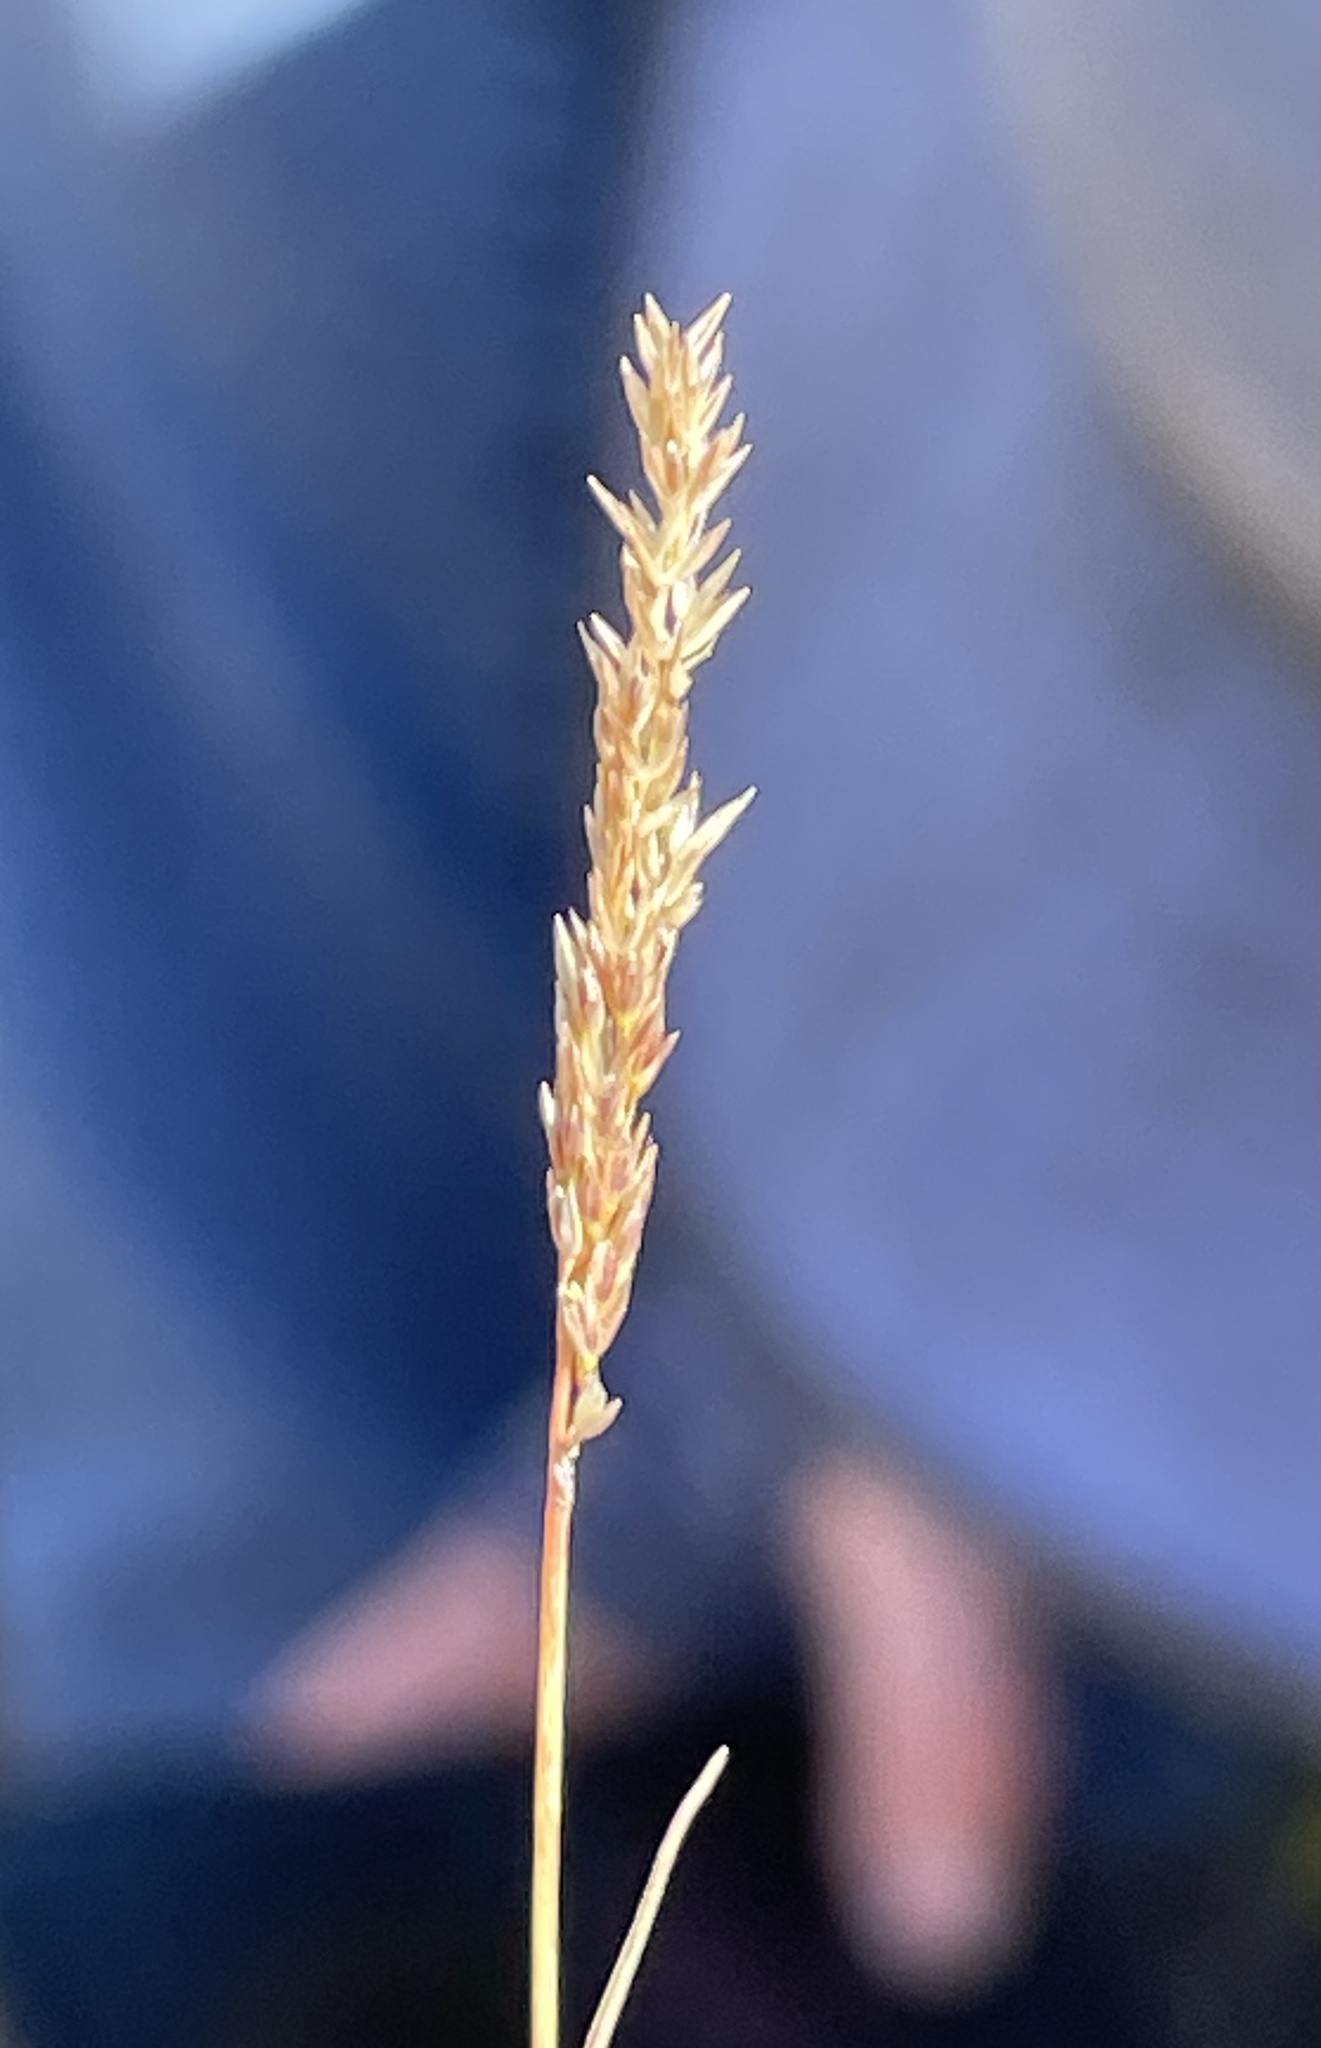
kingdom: Plantae
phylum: Tracheophyta
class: Liliopsida
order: Poales
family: Poaceae
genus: Agrostis
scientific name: Agrostis lacuna-vernalis
